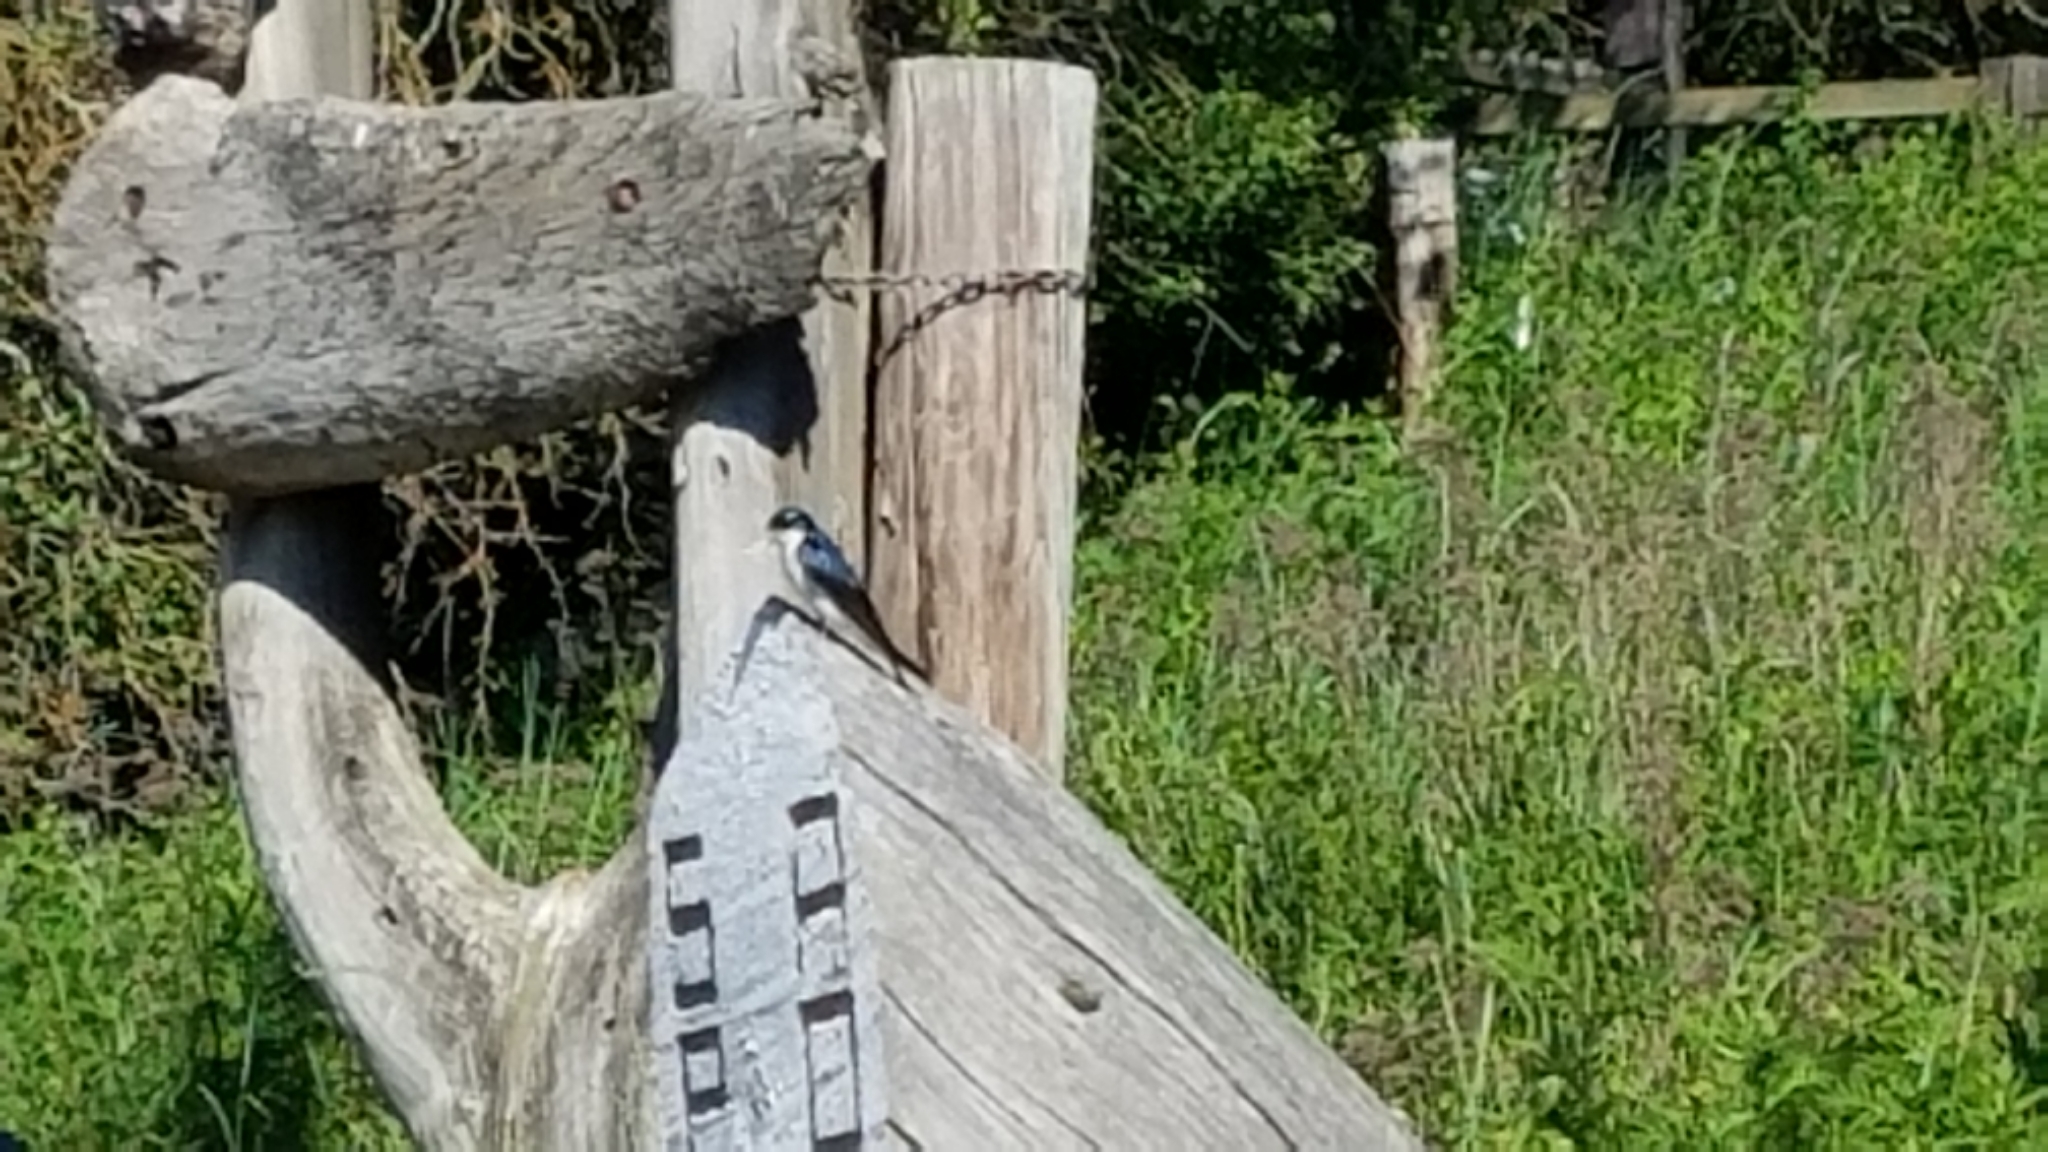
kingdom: Animalia
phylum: Chordata
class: Aves
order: Passeriformes
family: Hirundinidae
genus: Tachycineta
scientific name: Tachycineta bicolor
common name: Tree swallow
